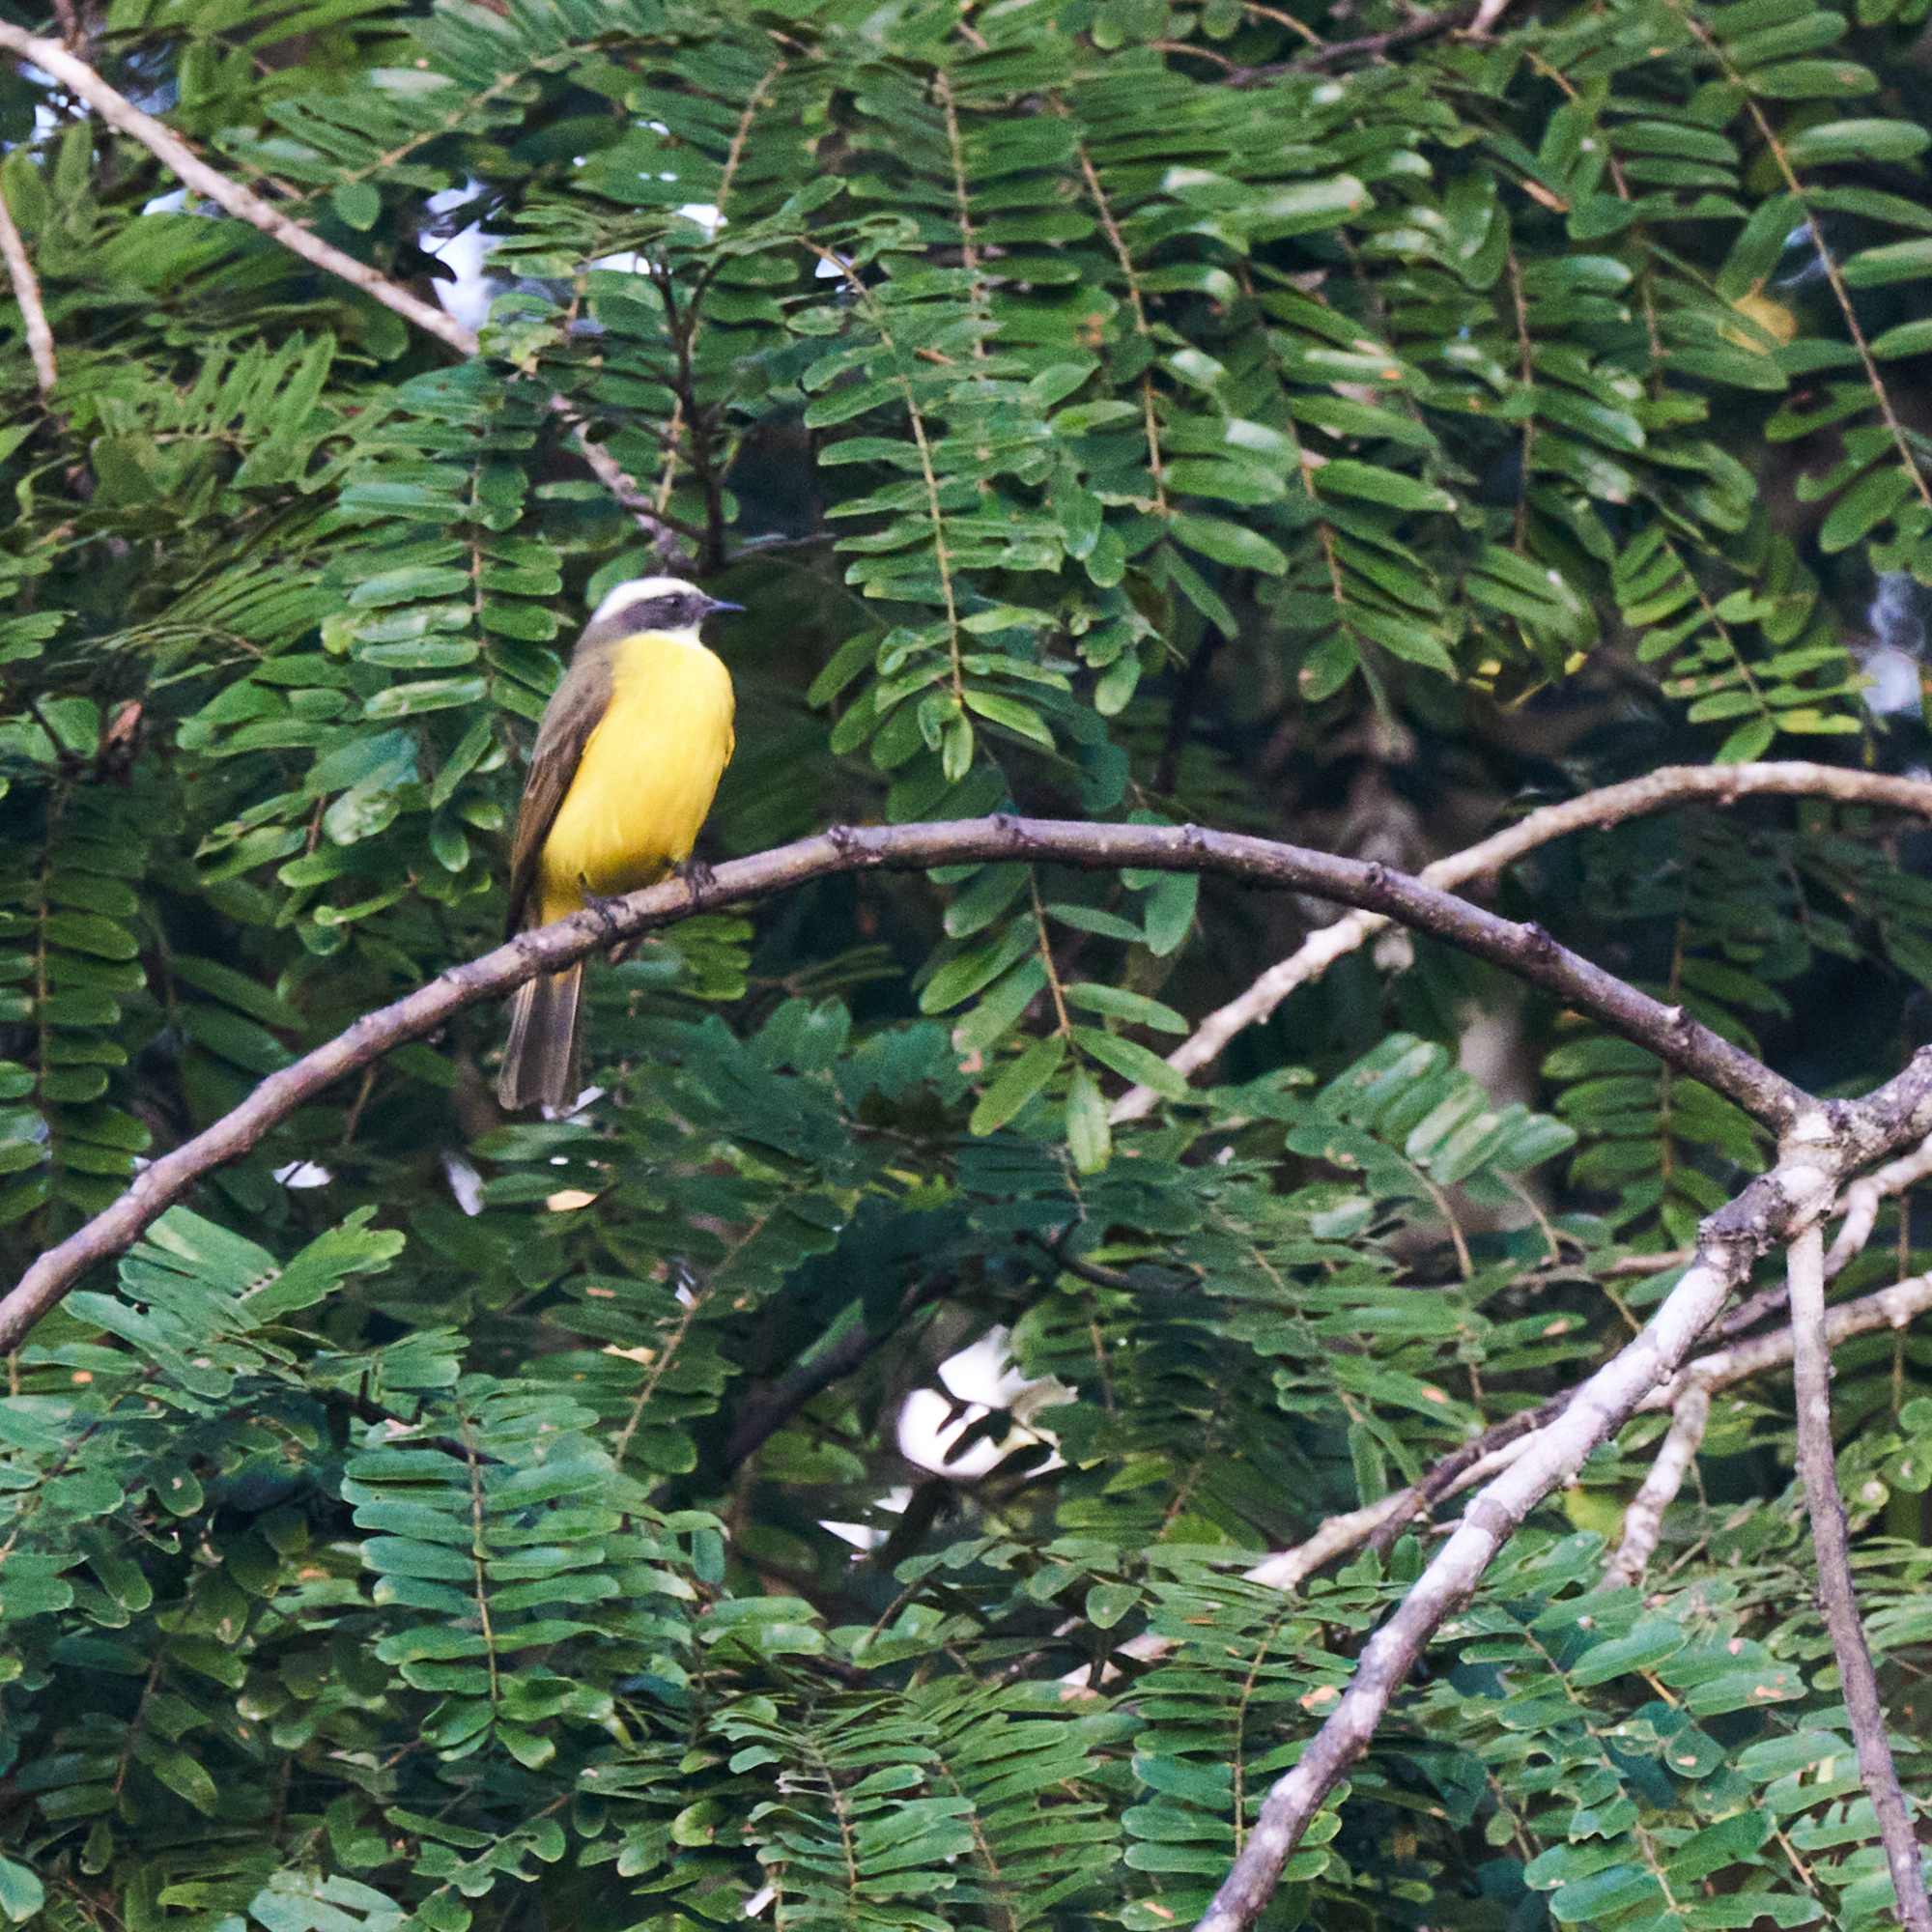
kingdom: Animalia
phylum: Chordata
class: Aves
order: Passeriformes
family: Tyrannidae
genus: Myiozetetes
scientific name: Myiozetetes similis
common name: Social flycatcher
